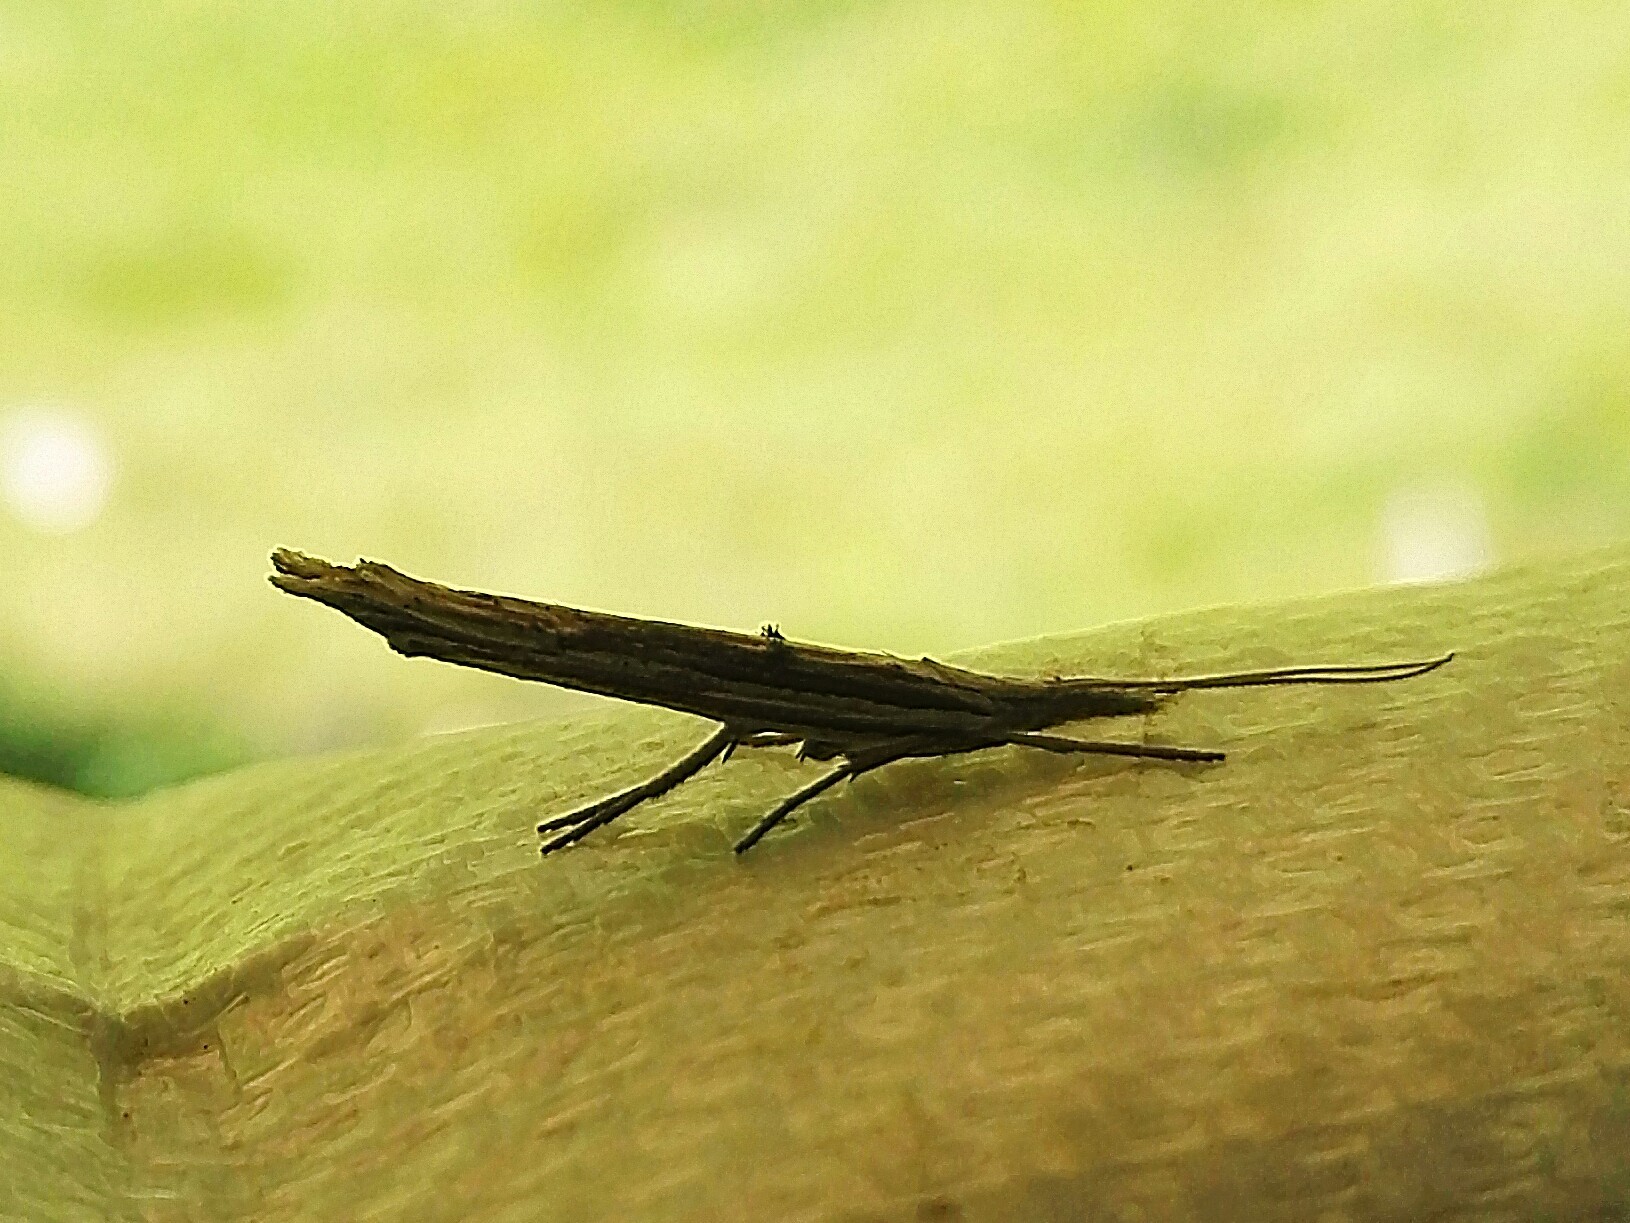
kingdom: Animalia
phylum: Arthropoda
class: Insecta
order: Lepidoptera
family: Ypsolophidae
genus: Ypsolopha
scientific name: Ypsolopha mucronella
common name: Spindle smudge
